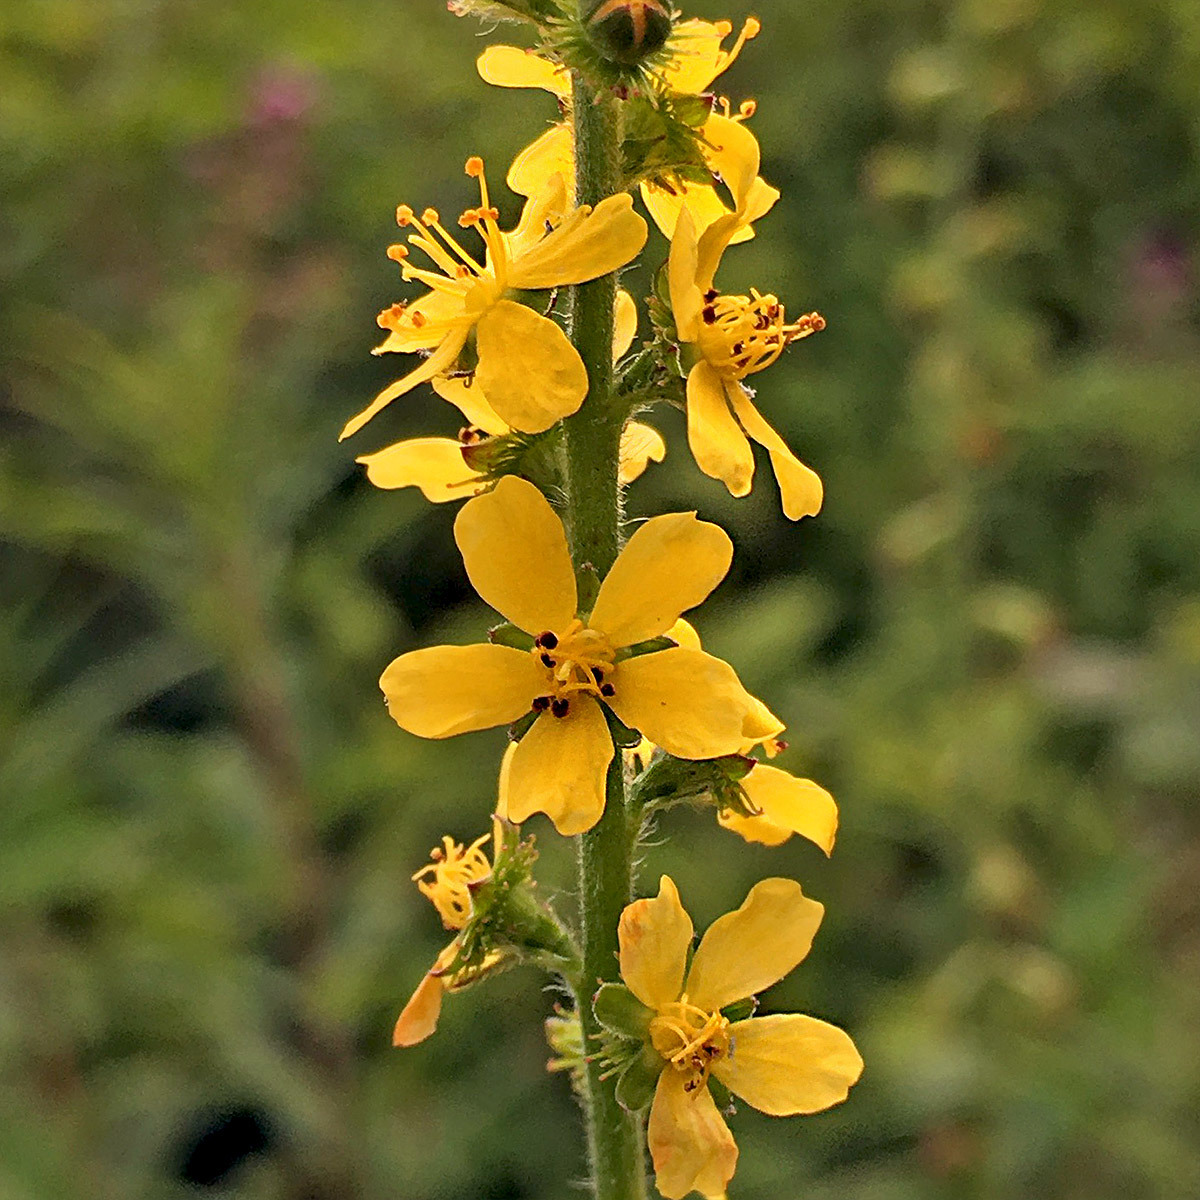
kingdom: Plantae
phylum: Tracheophyta
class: Magnoliopsida
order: Rosales
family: Rosaceae
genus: Agrimonia
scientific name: Agrimonia eupatoria
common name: Agrimony
